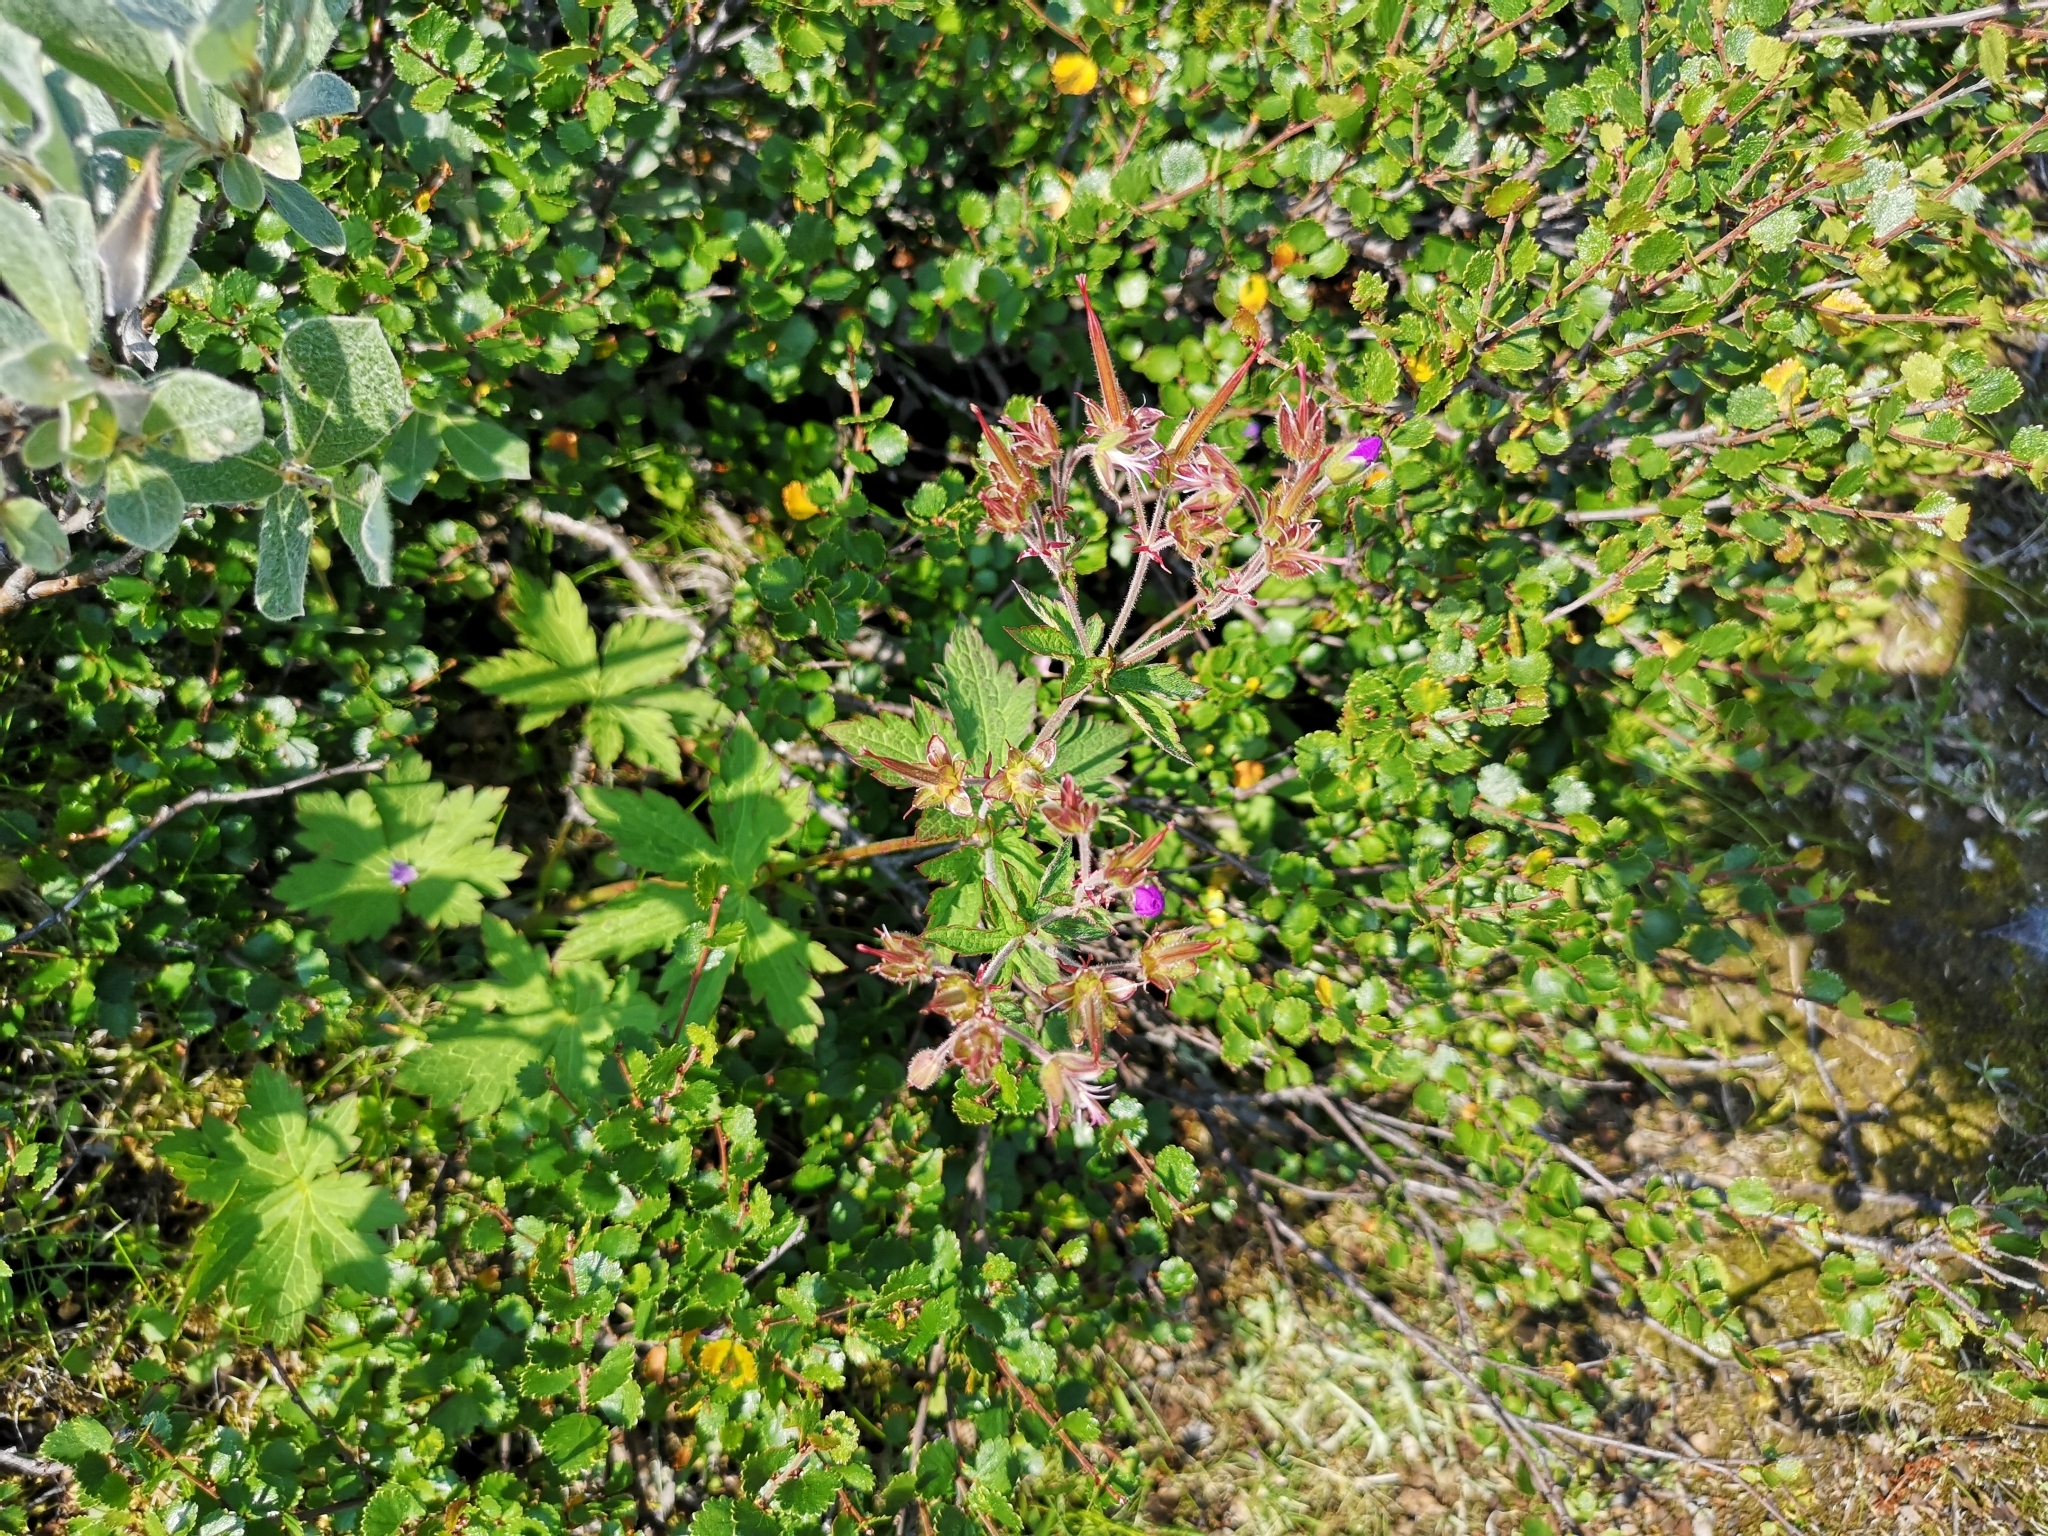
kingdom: Plantae
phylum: Tracheophyta
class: Magnoliopsida
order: Geraniales
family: Geraniaceae
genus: Geranium
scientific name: Geranium sylvaticum
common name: Wood crane's-bill
